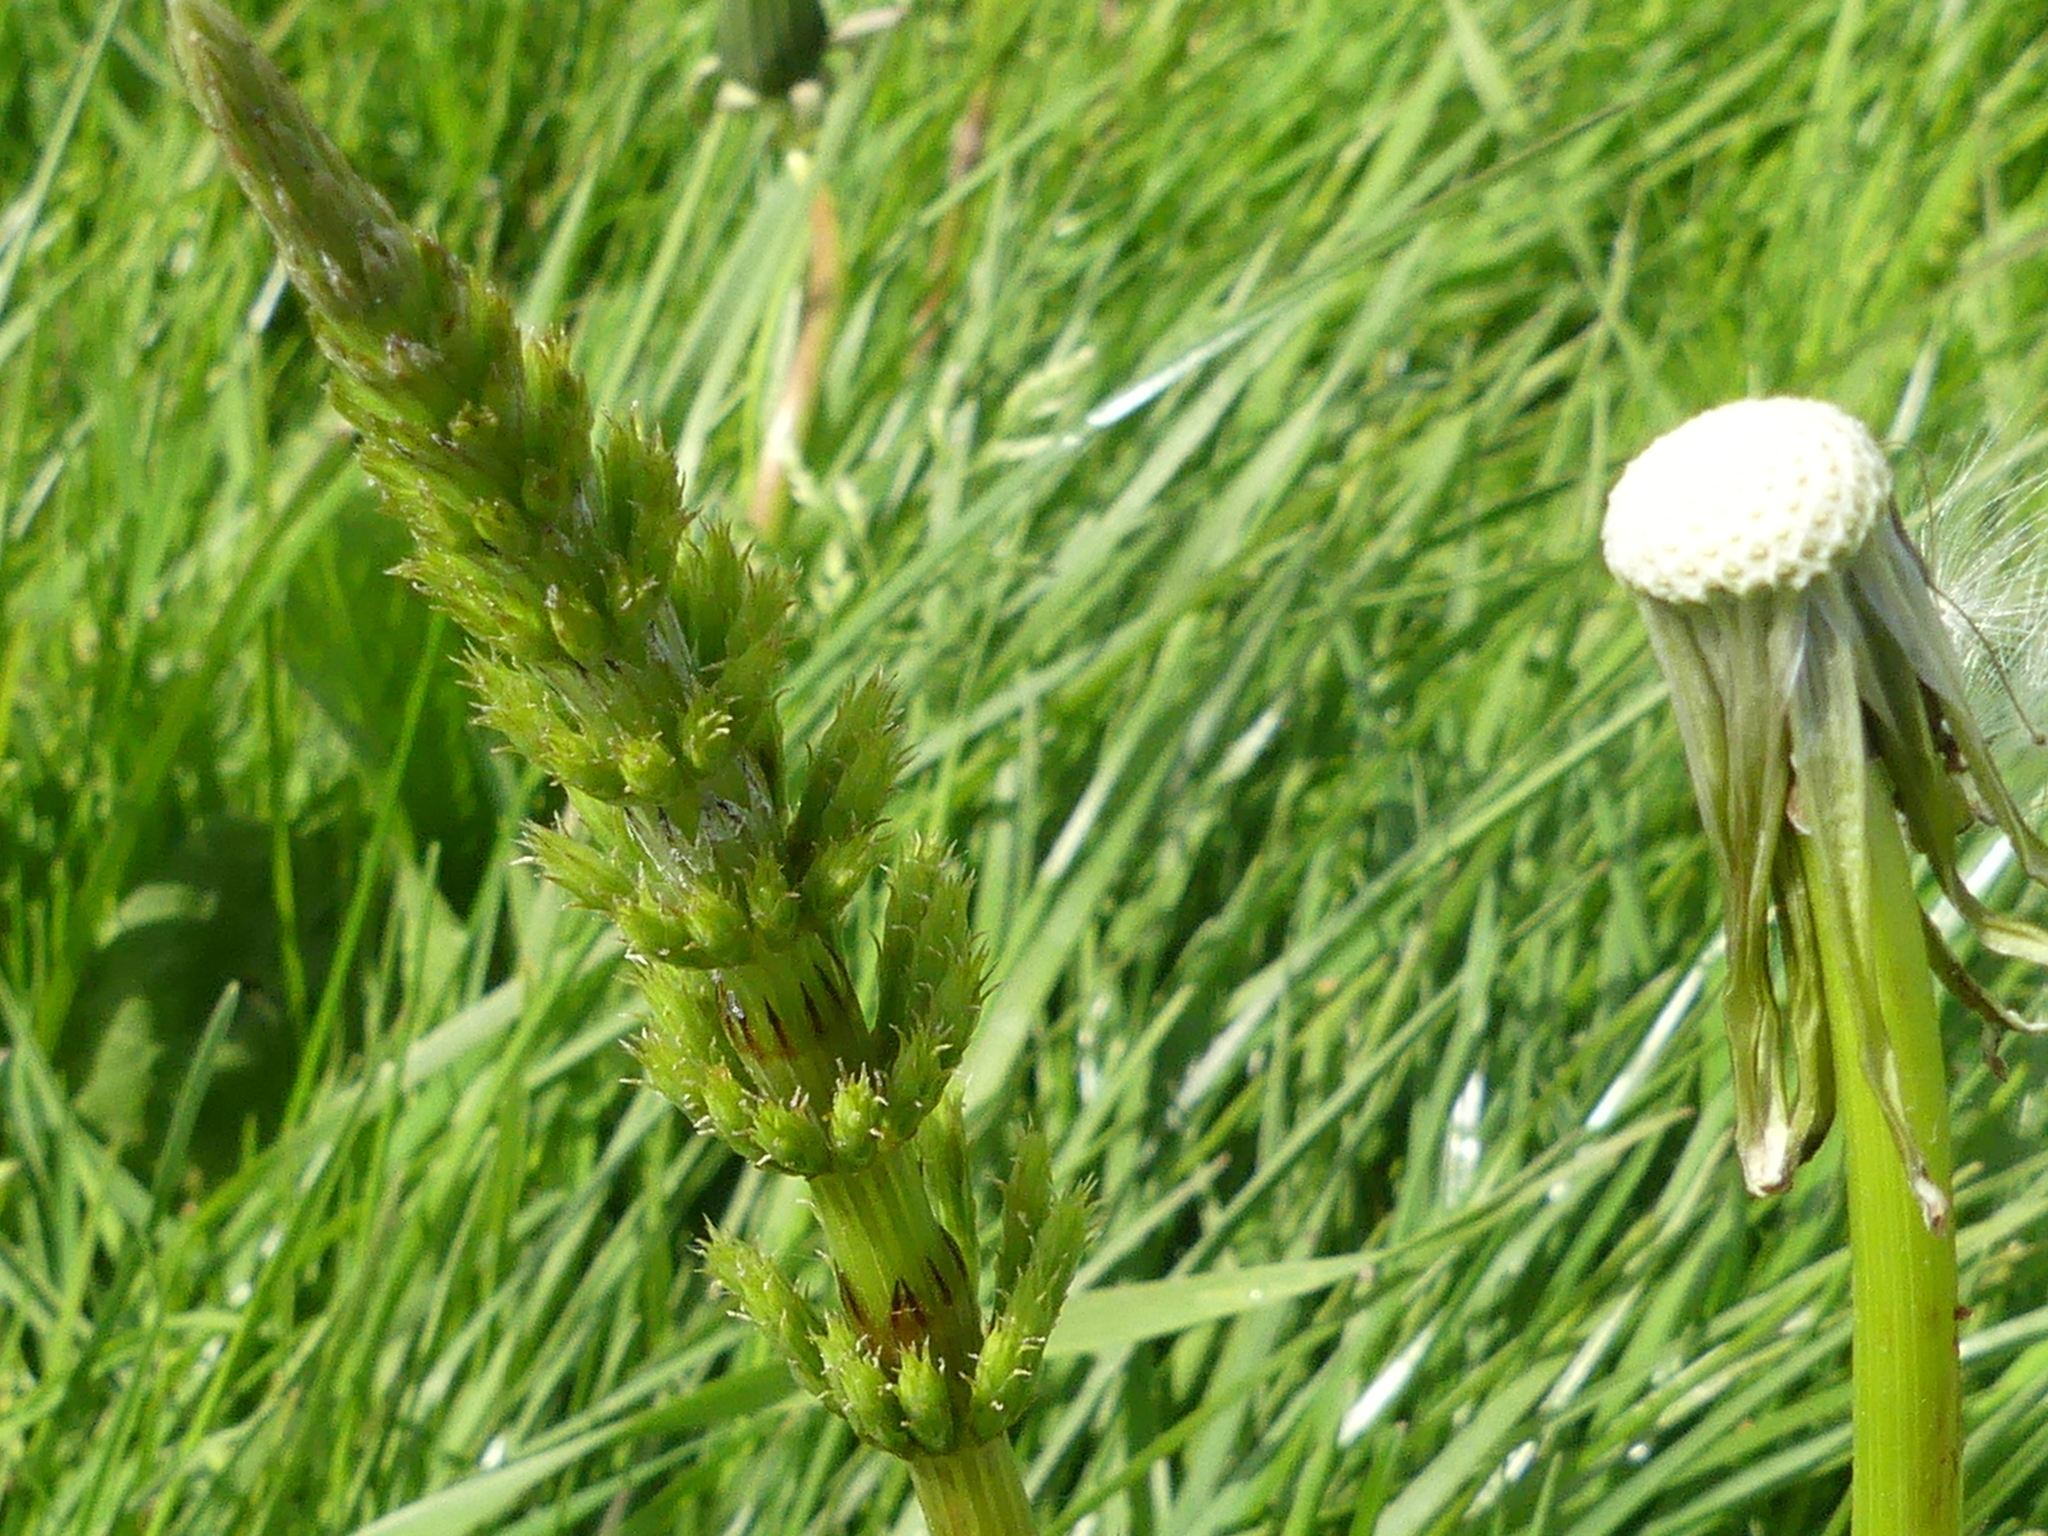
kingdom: Plantae
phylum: Tracheophyta
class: Polypodiopsida
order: Equisetales
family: Equisetaceae
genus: Equisetum
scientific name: Equisetum arvense
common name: Field horsetail
